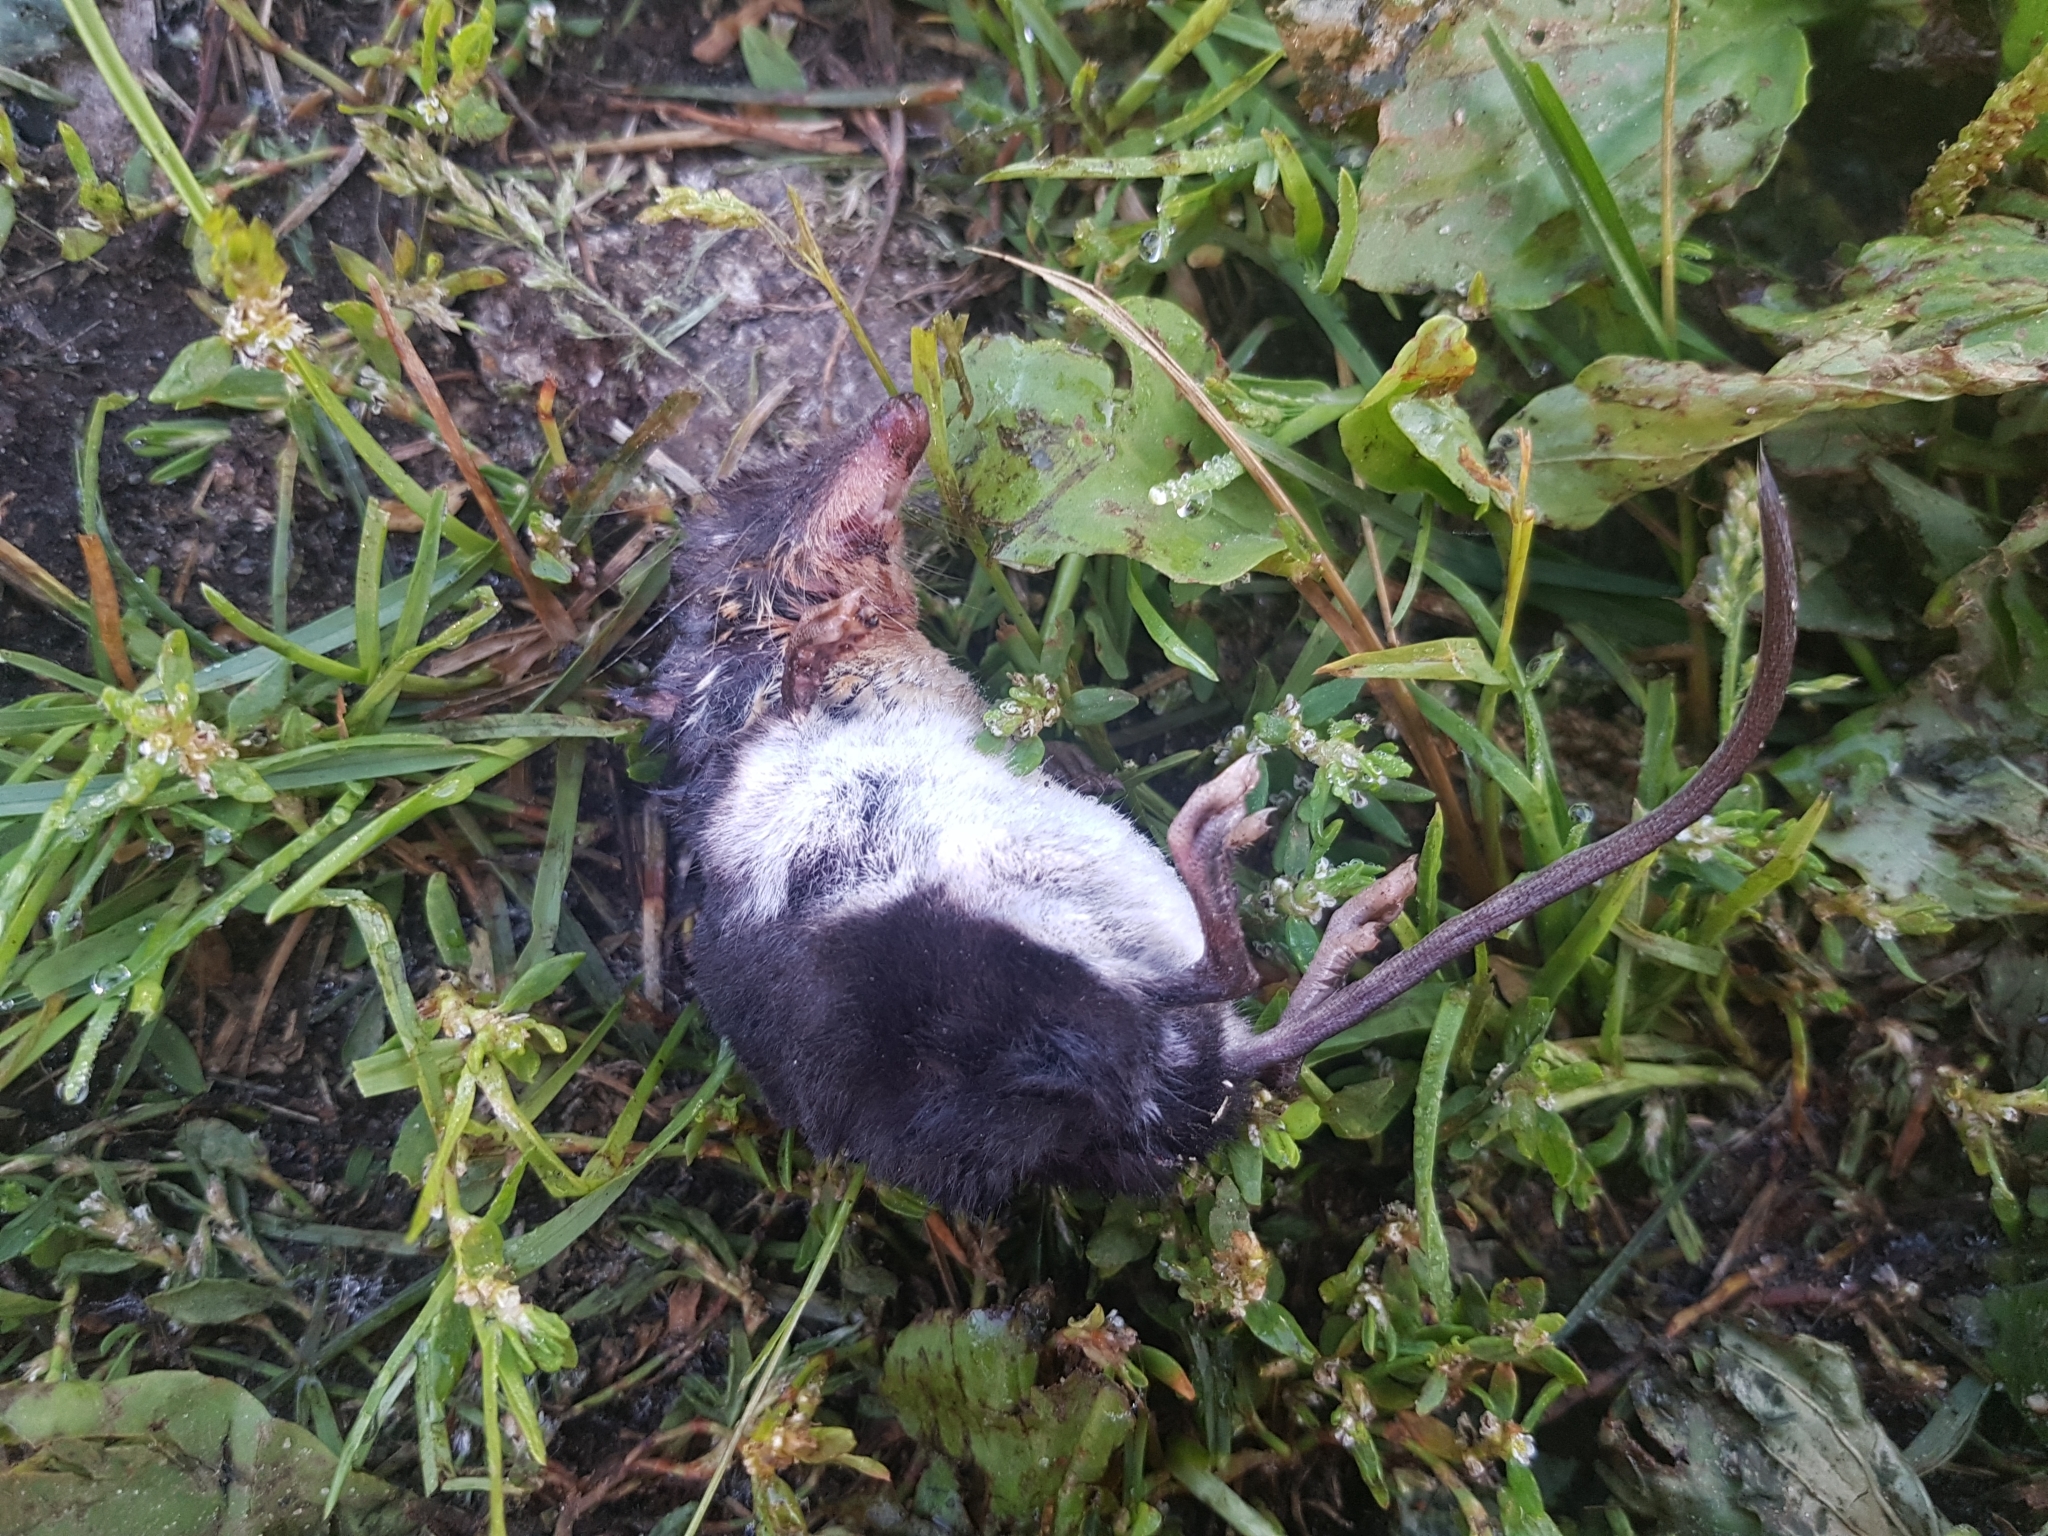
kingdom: Animalia
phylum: Chordata
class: Mammalia
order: Soricomorpha
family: Soricidae
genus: Neomys
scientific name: Neomys fodiens
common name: Eurasian water shrew
